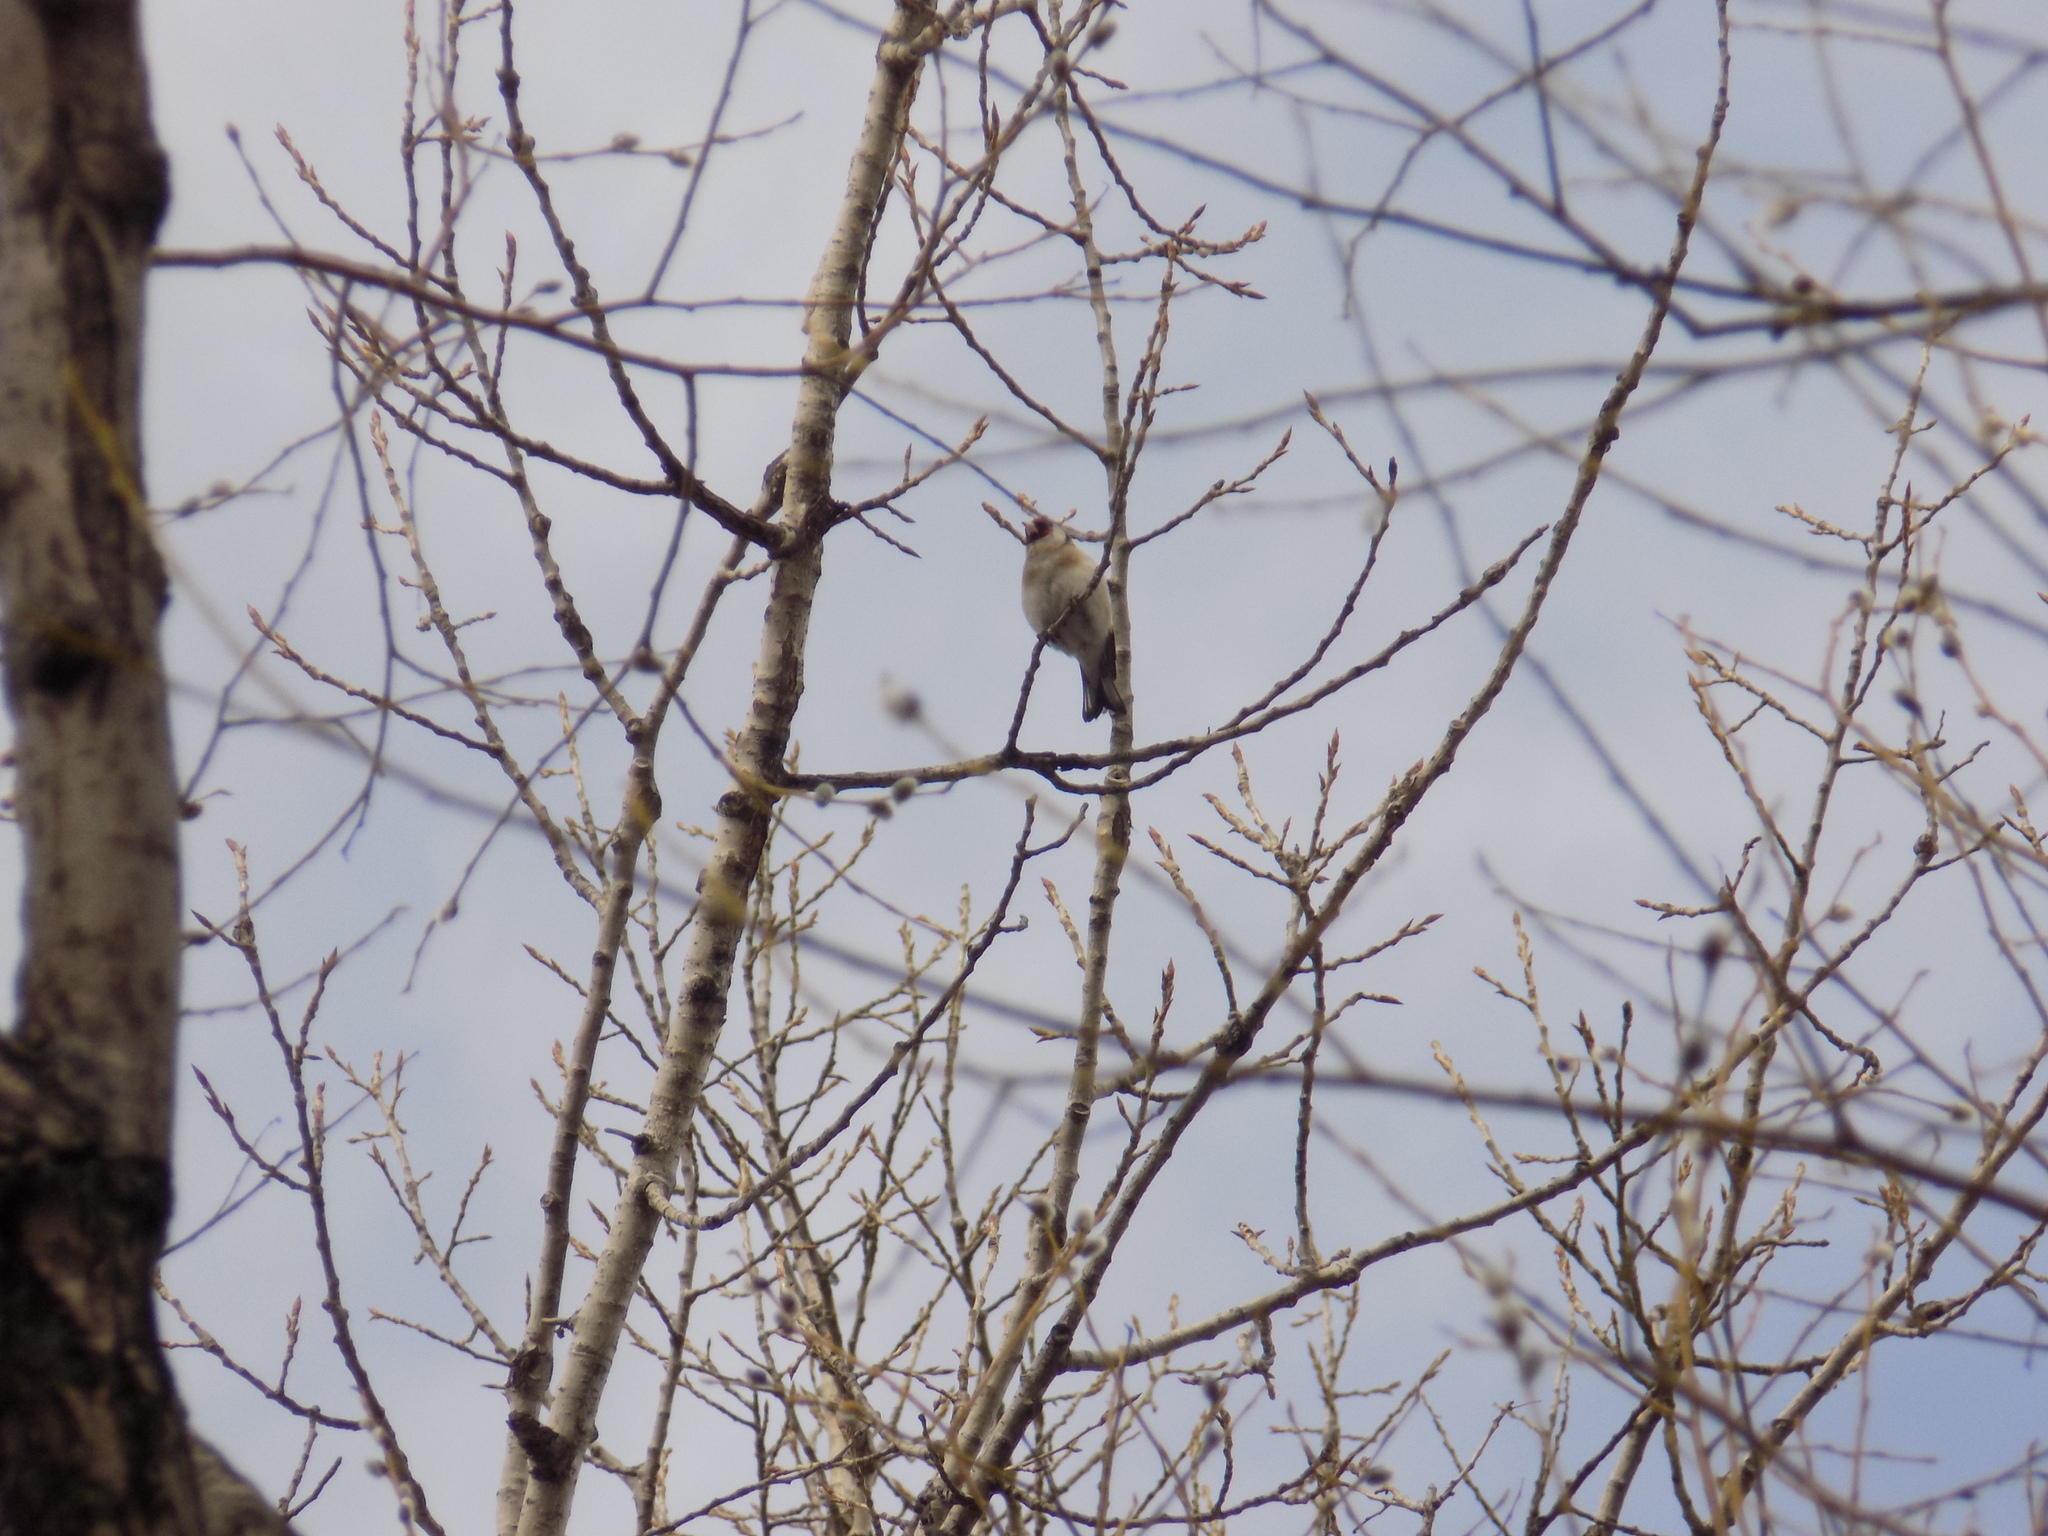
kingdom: Animalia
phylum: Chordata
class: Aves
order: Passeriformes
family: Fringillidae
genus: Carduelis
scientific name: Carduelis carduelis
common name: European goldfinch
